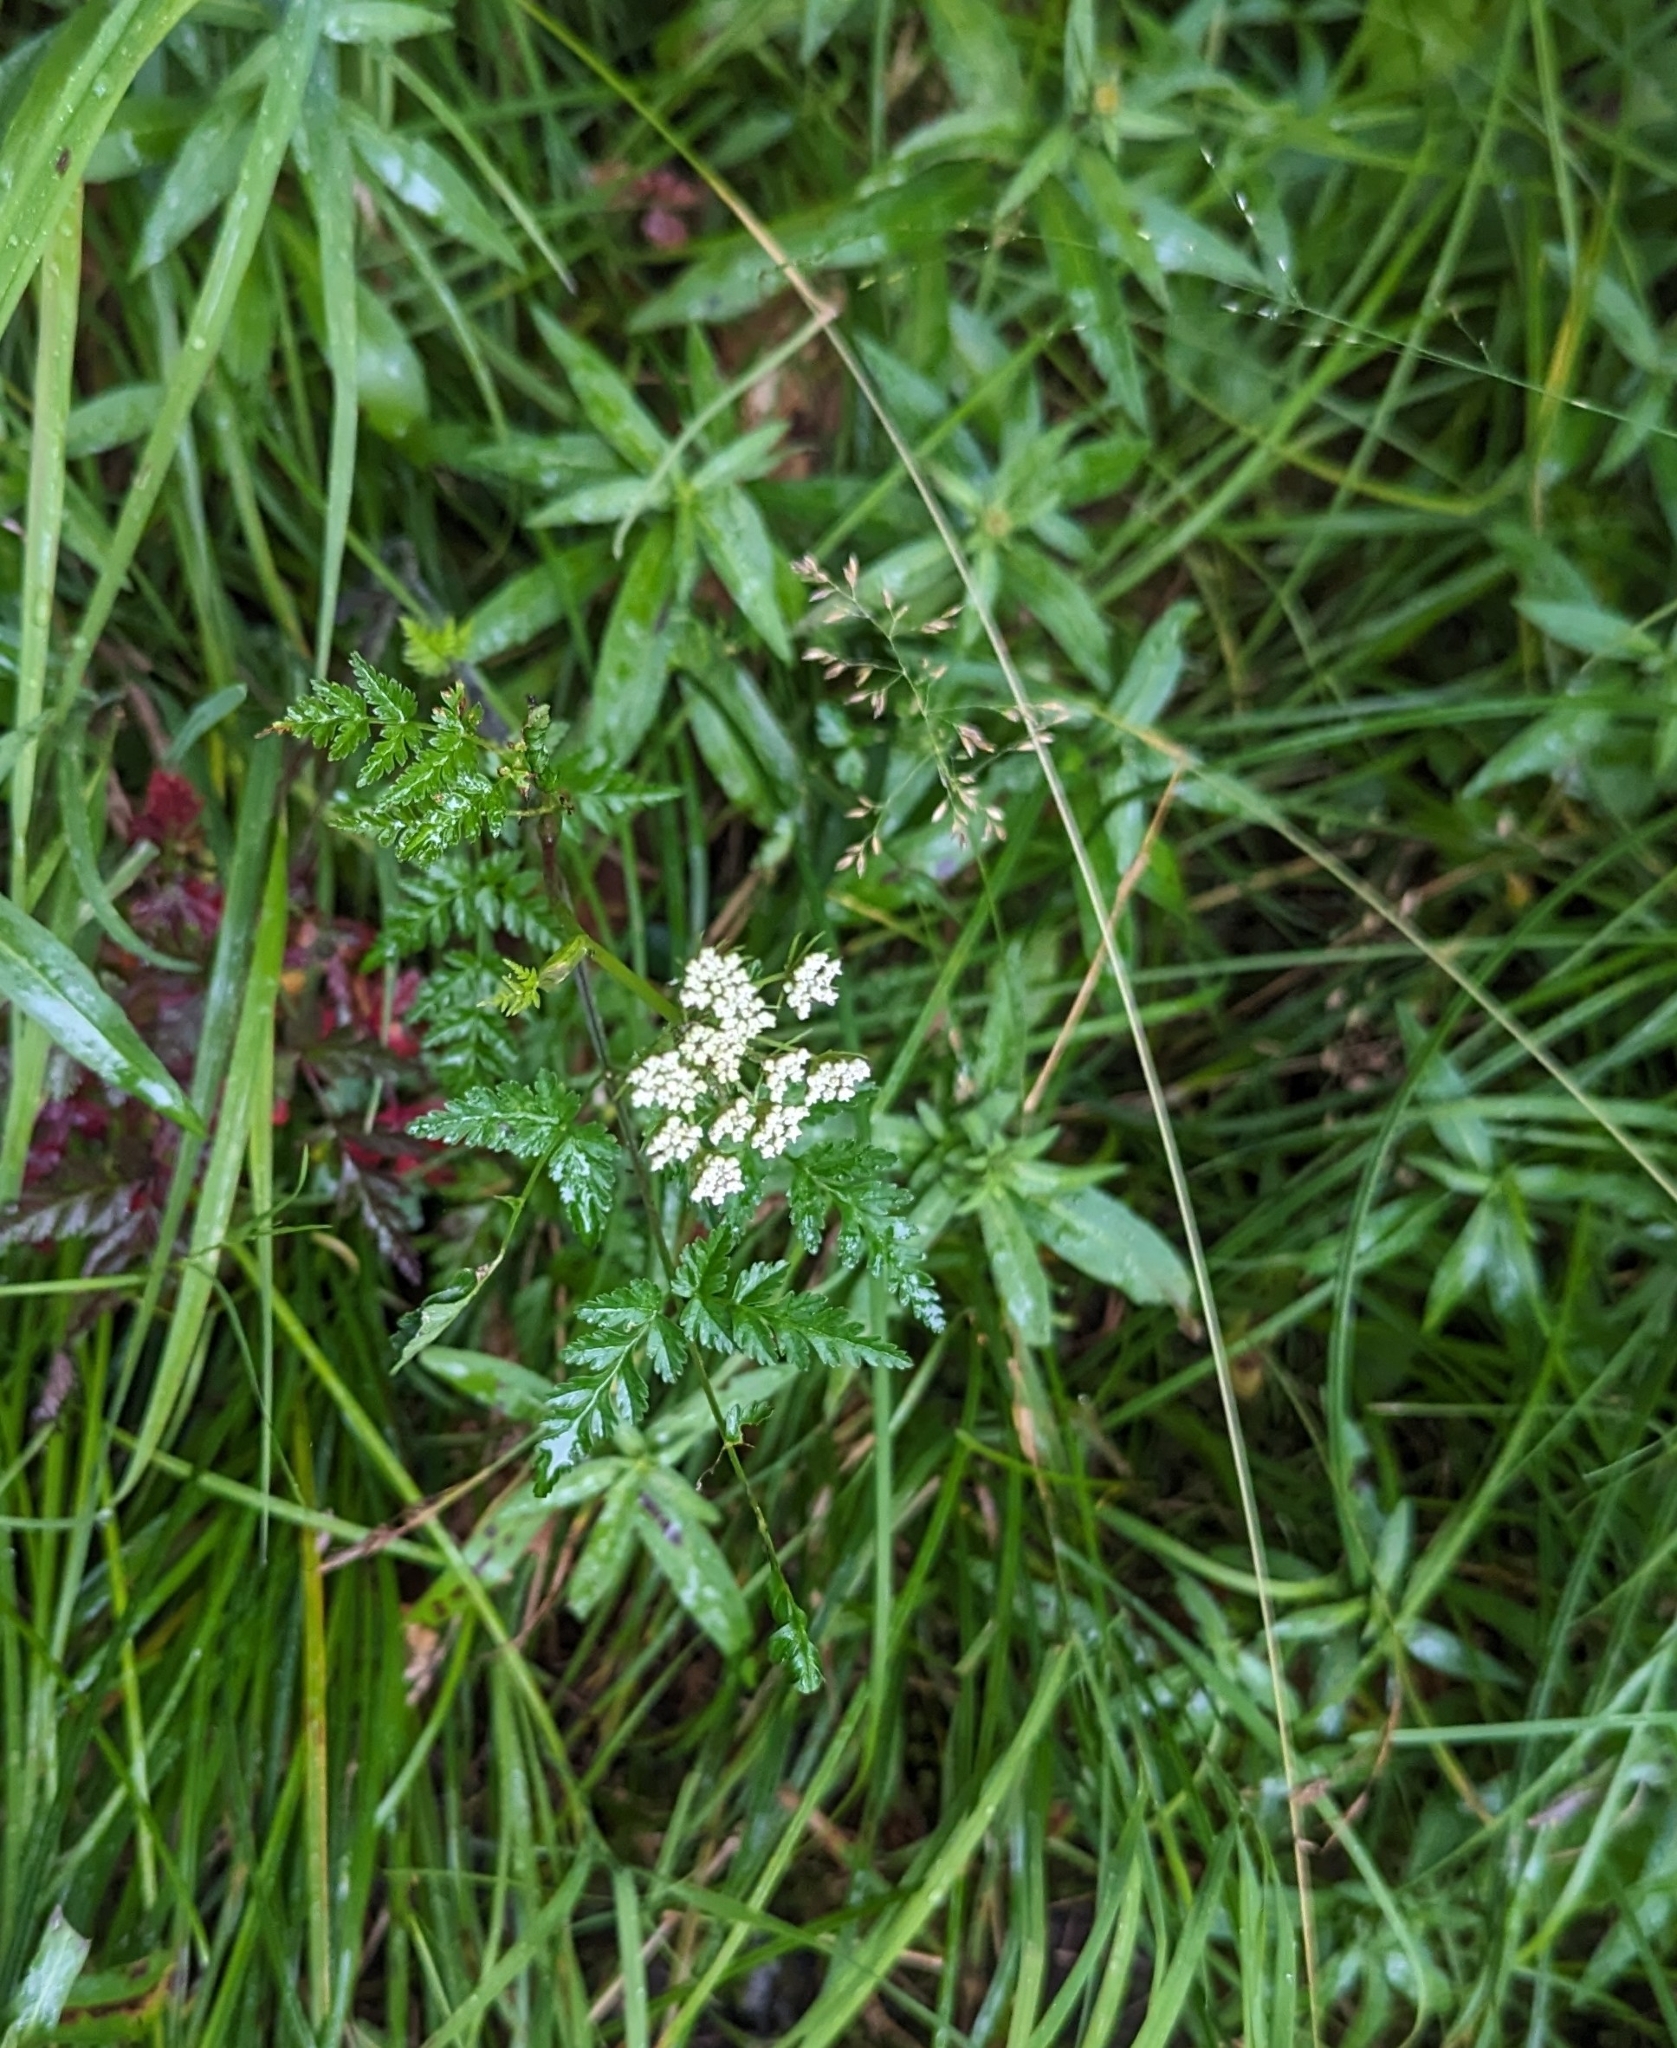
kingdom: Plantae
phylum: Tracheophyta
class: Magnoliopsida
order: Apiales
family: Apiaceae
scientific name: Apiaceae
